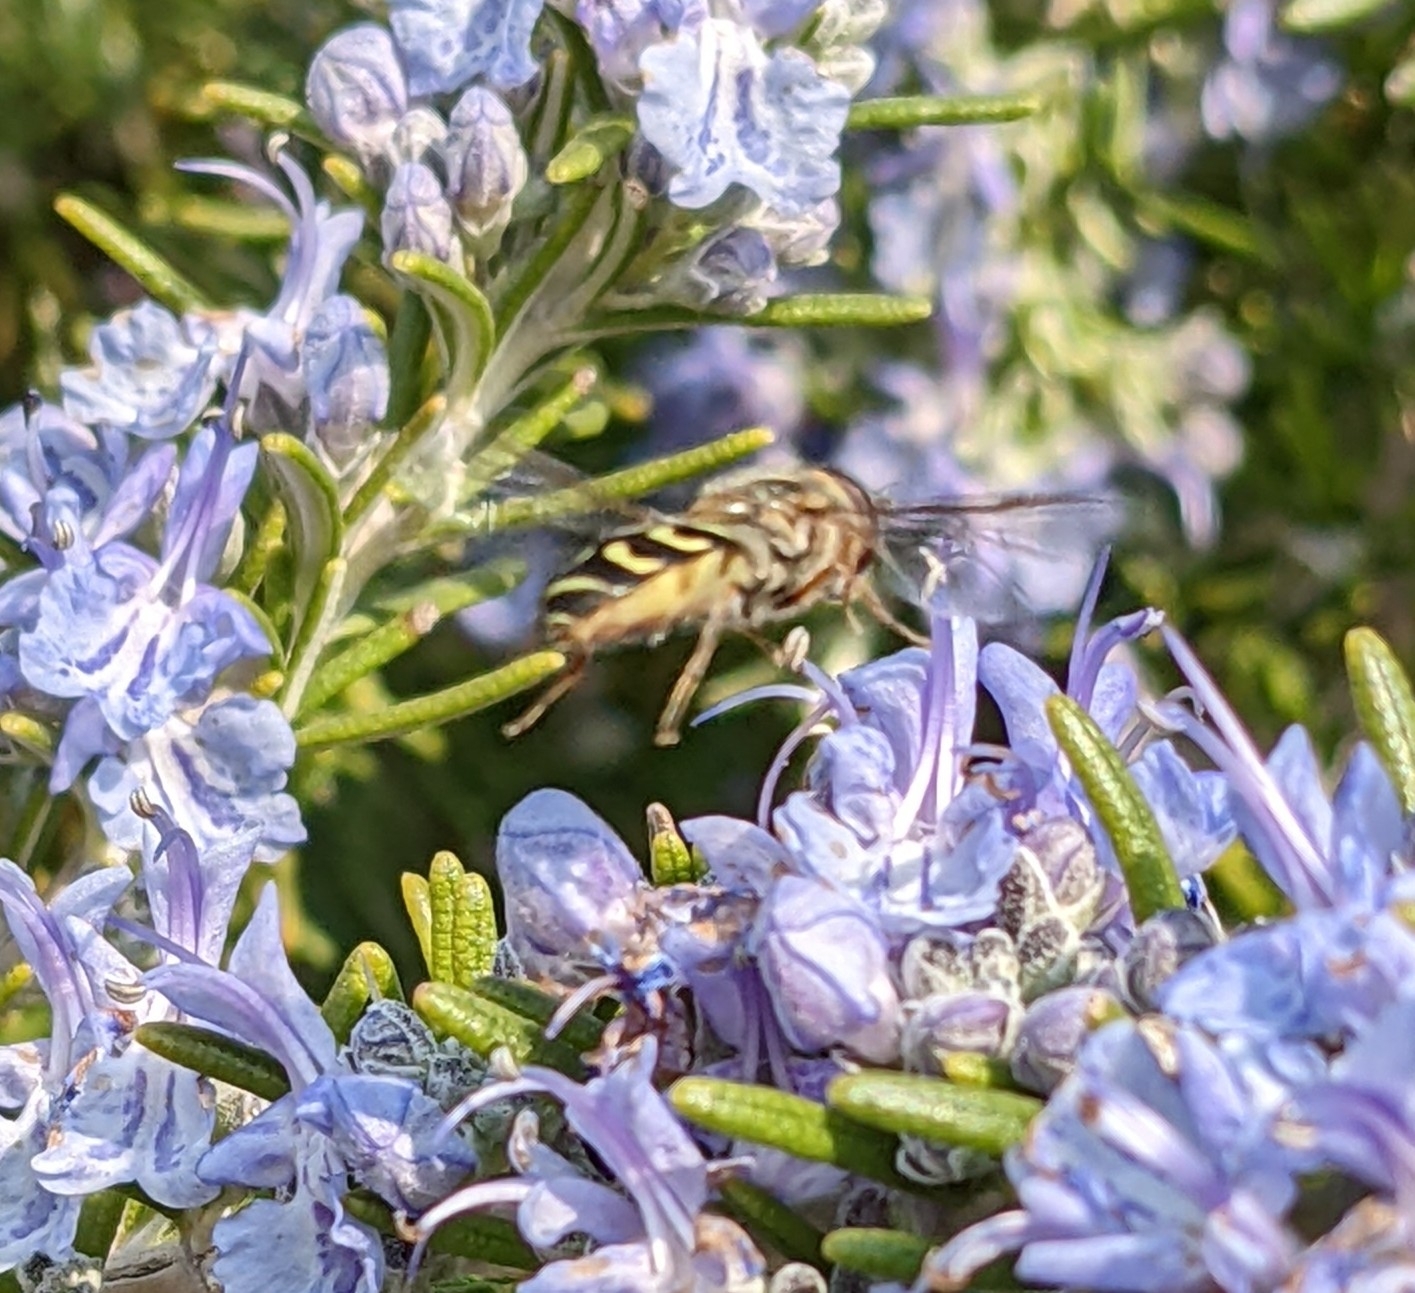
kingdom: Animalia
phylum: Arthropoda
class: Insecta
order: Diptera
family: Syrphidae
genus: Scaeva
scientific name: Scaeva selenitica
